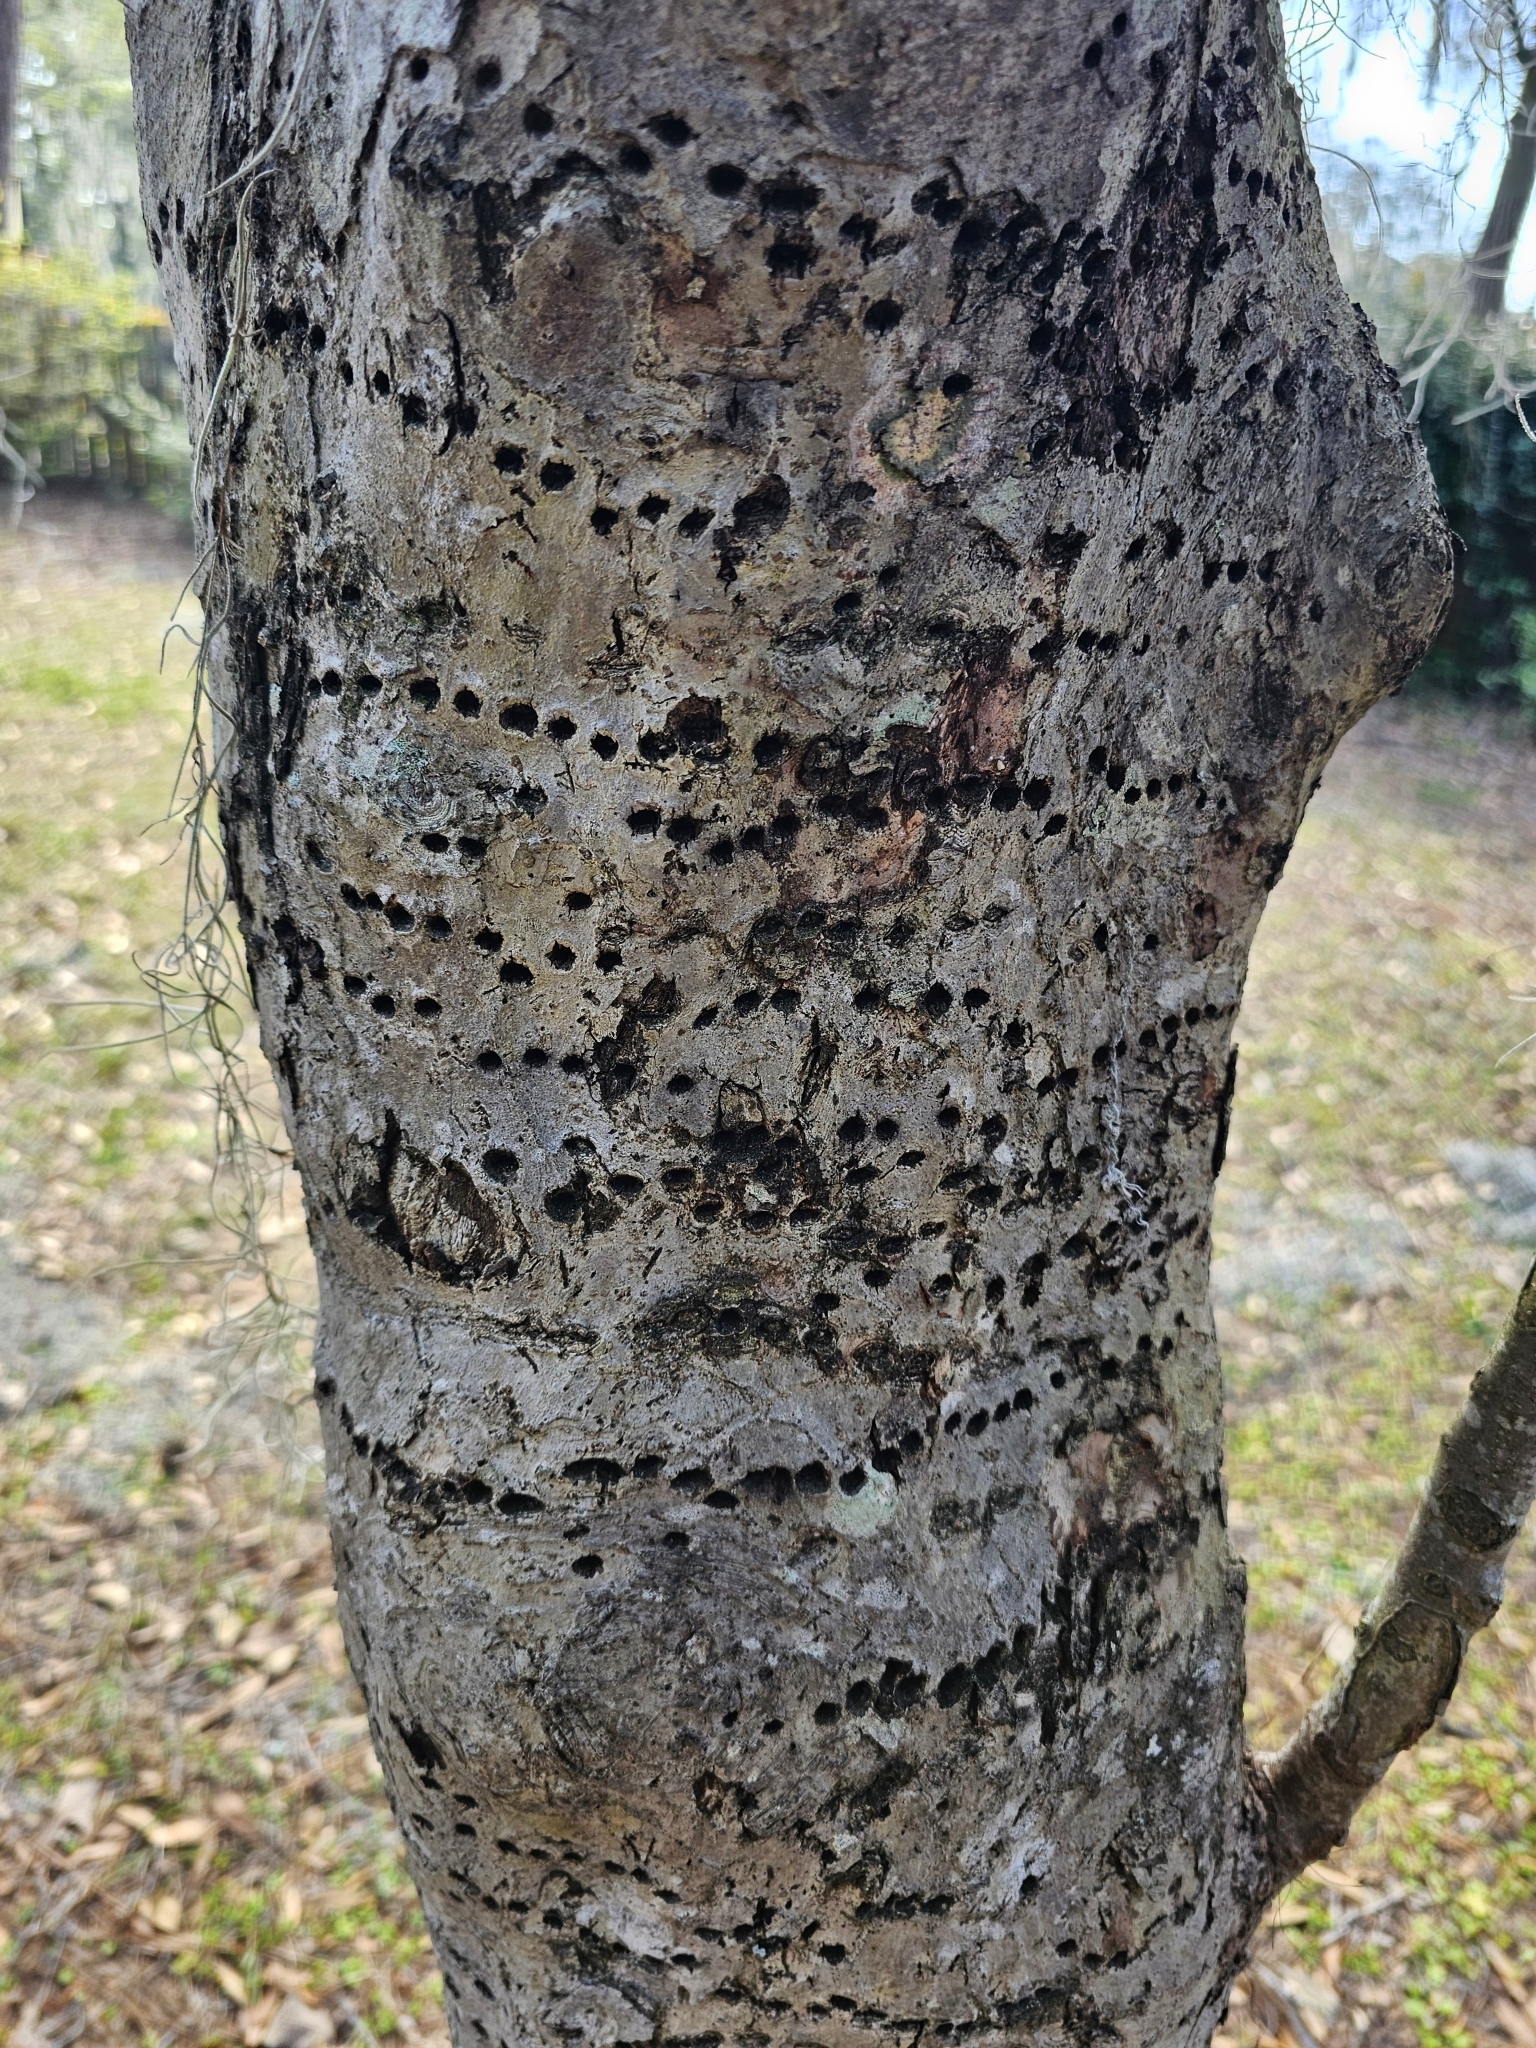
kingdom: Animalia
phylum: Chordata
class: Aves
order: Piciformes
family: Picidae
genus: Sphyrapicus
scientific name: Sphyrapicus varius
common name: Yellow-bellied sapsucker
